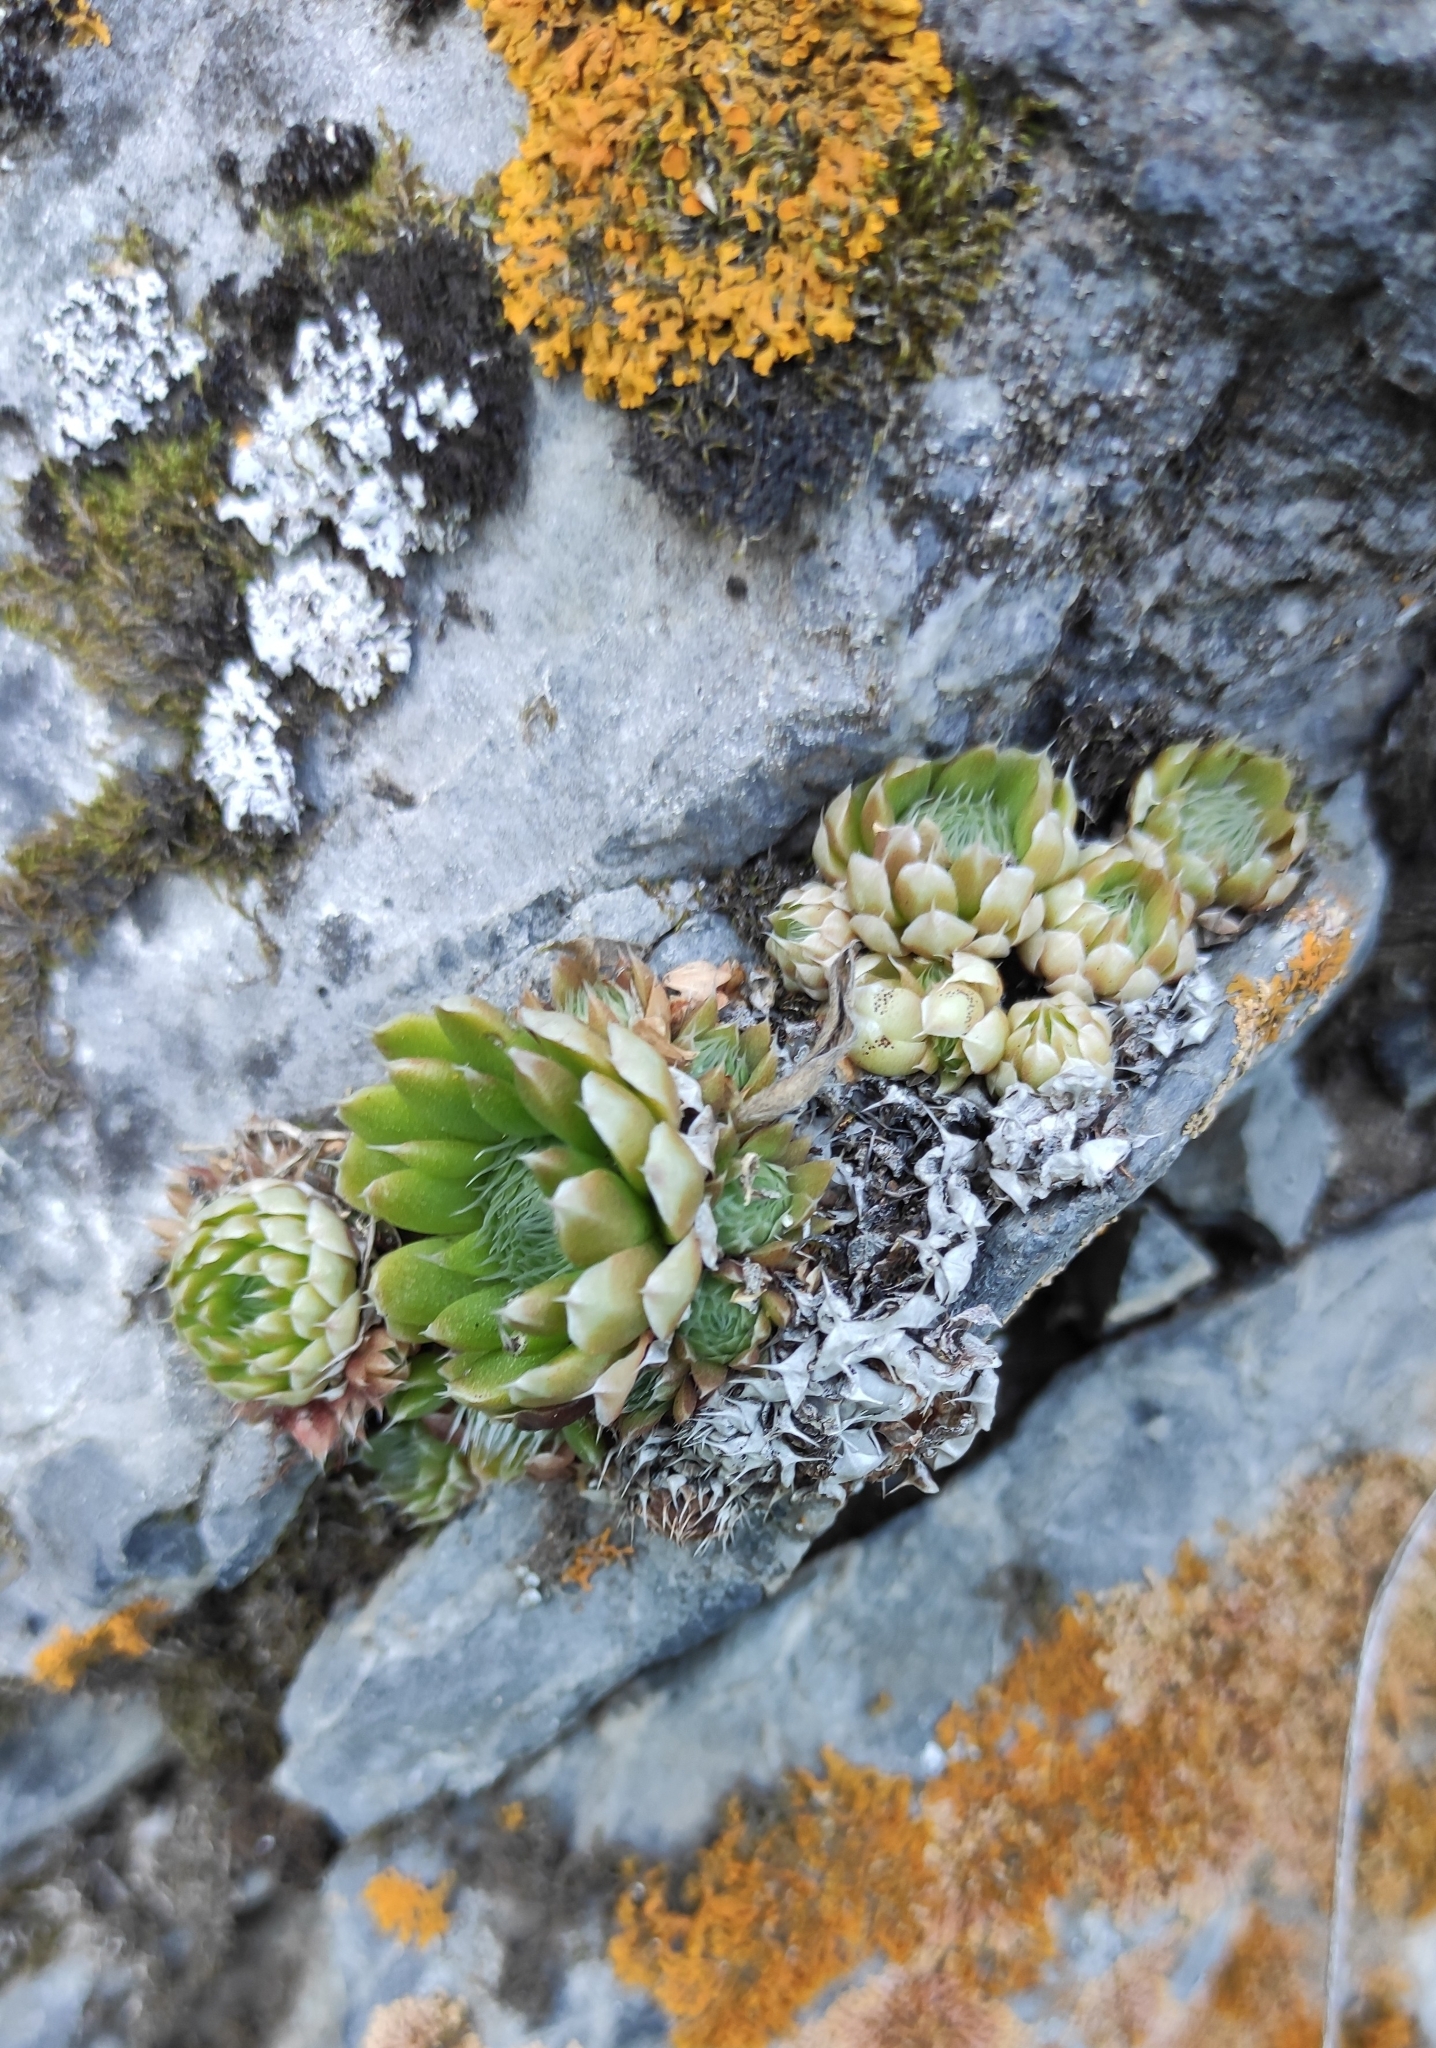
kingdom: Plantae
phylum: Tracheophyta
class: Magnoliopsida
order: Saxifragales
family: Crassulaceae
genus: Orostachys
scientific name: Orostachys spinosa
